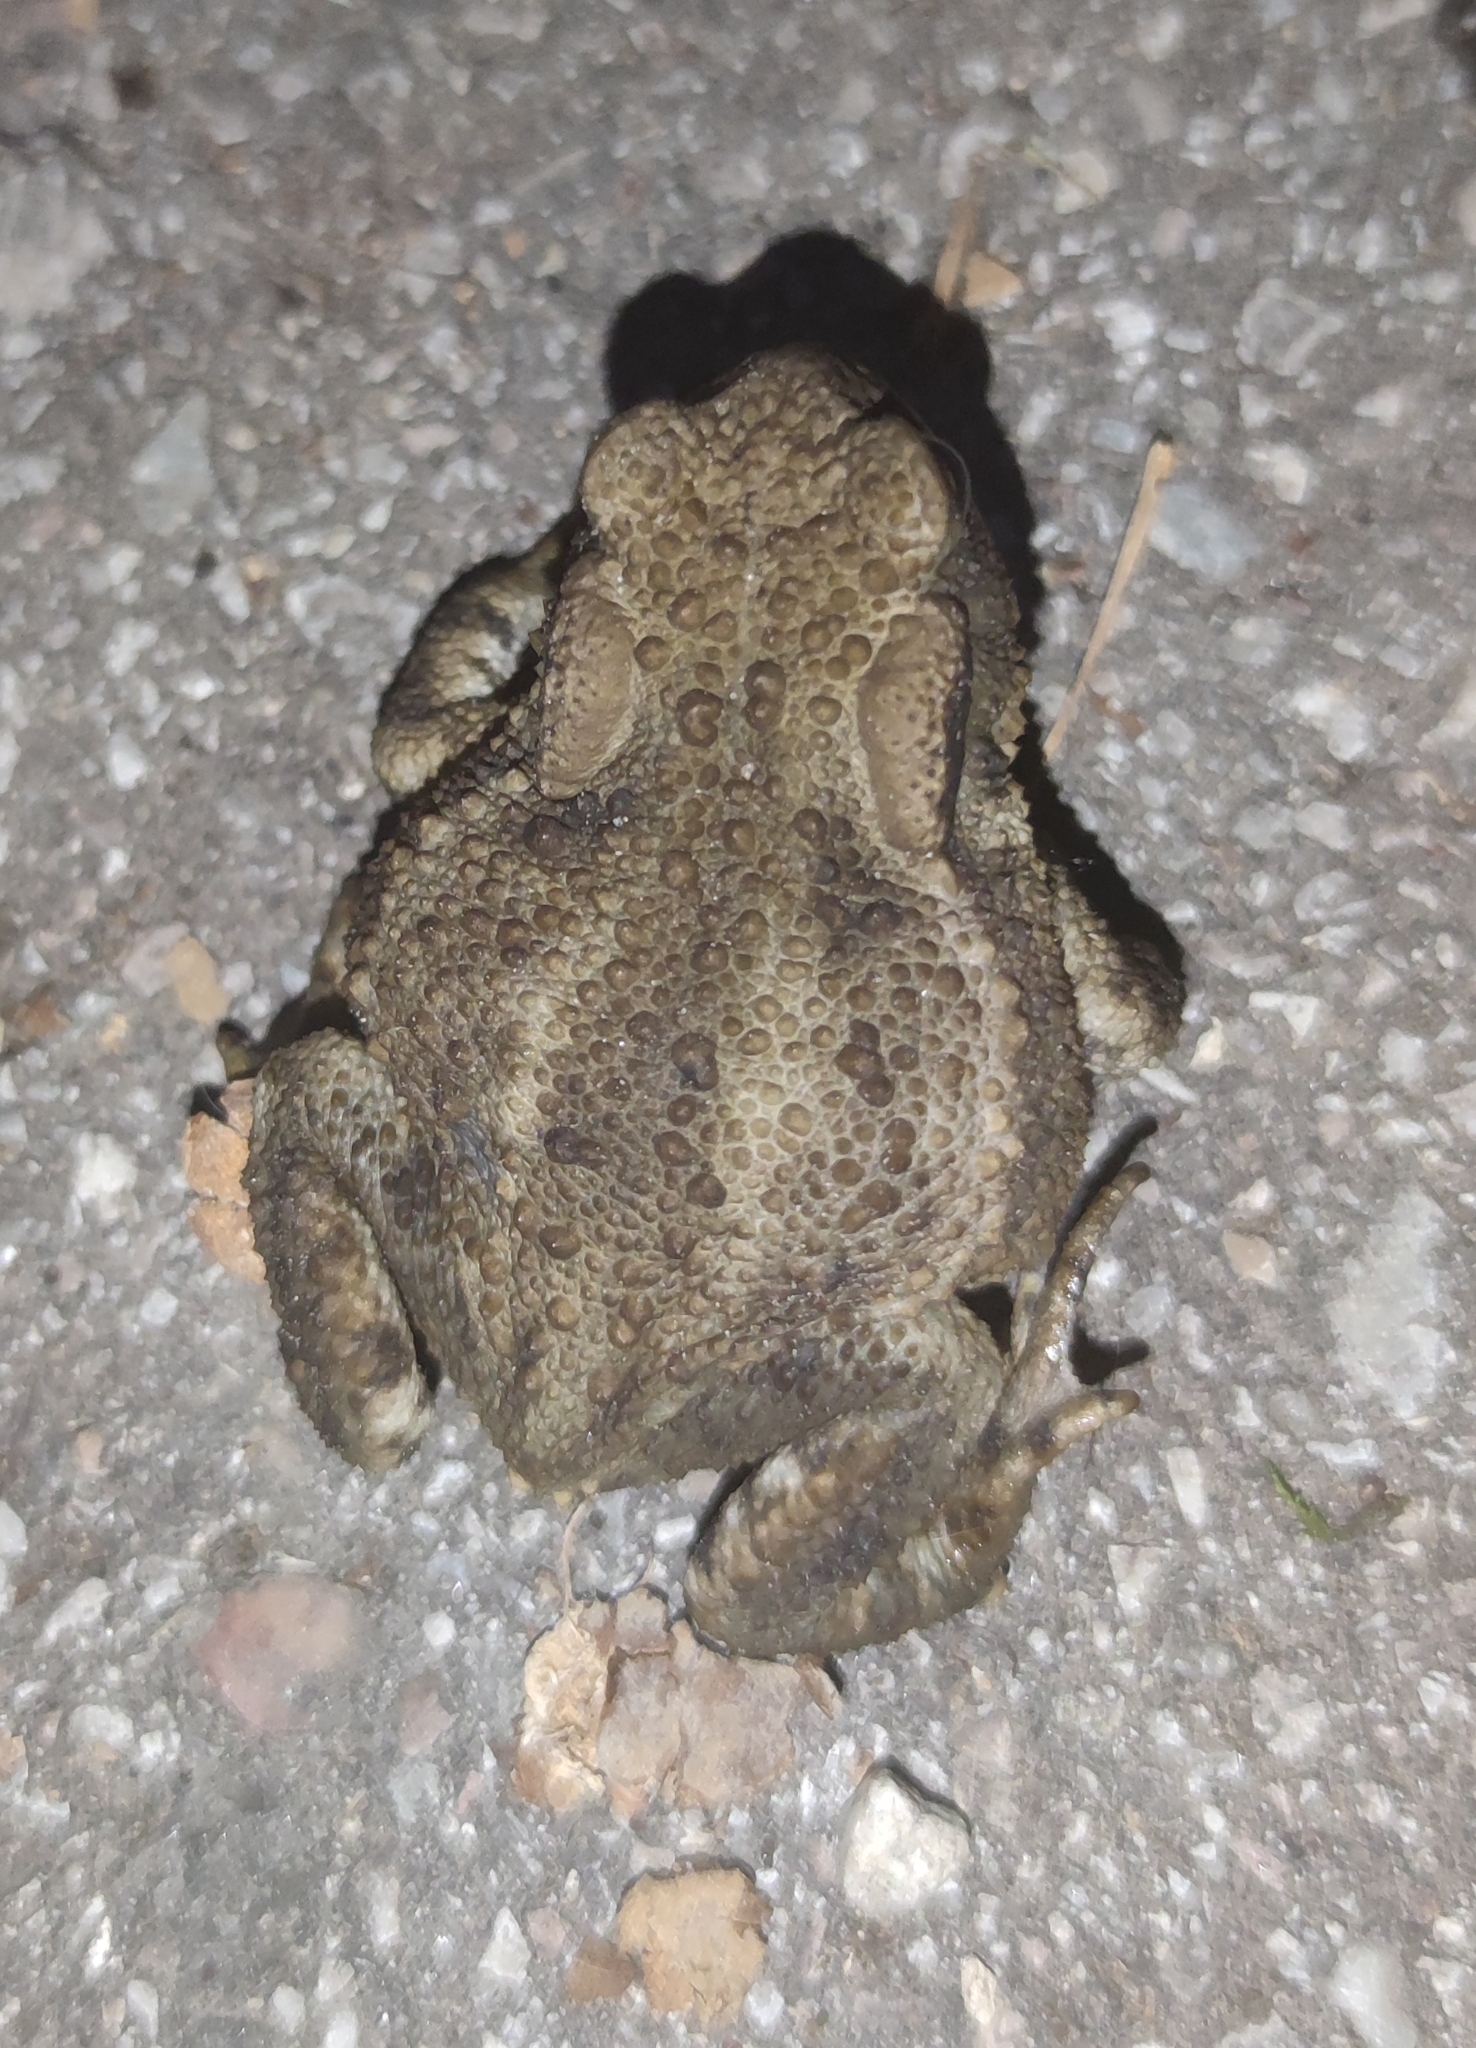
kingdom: Animalia
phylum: Chordata
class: Amphibia
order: Anura
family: Bufonidae
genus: Bufo
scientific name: Bufo bufo
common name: Common toad
